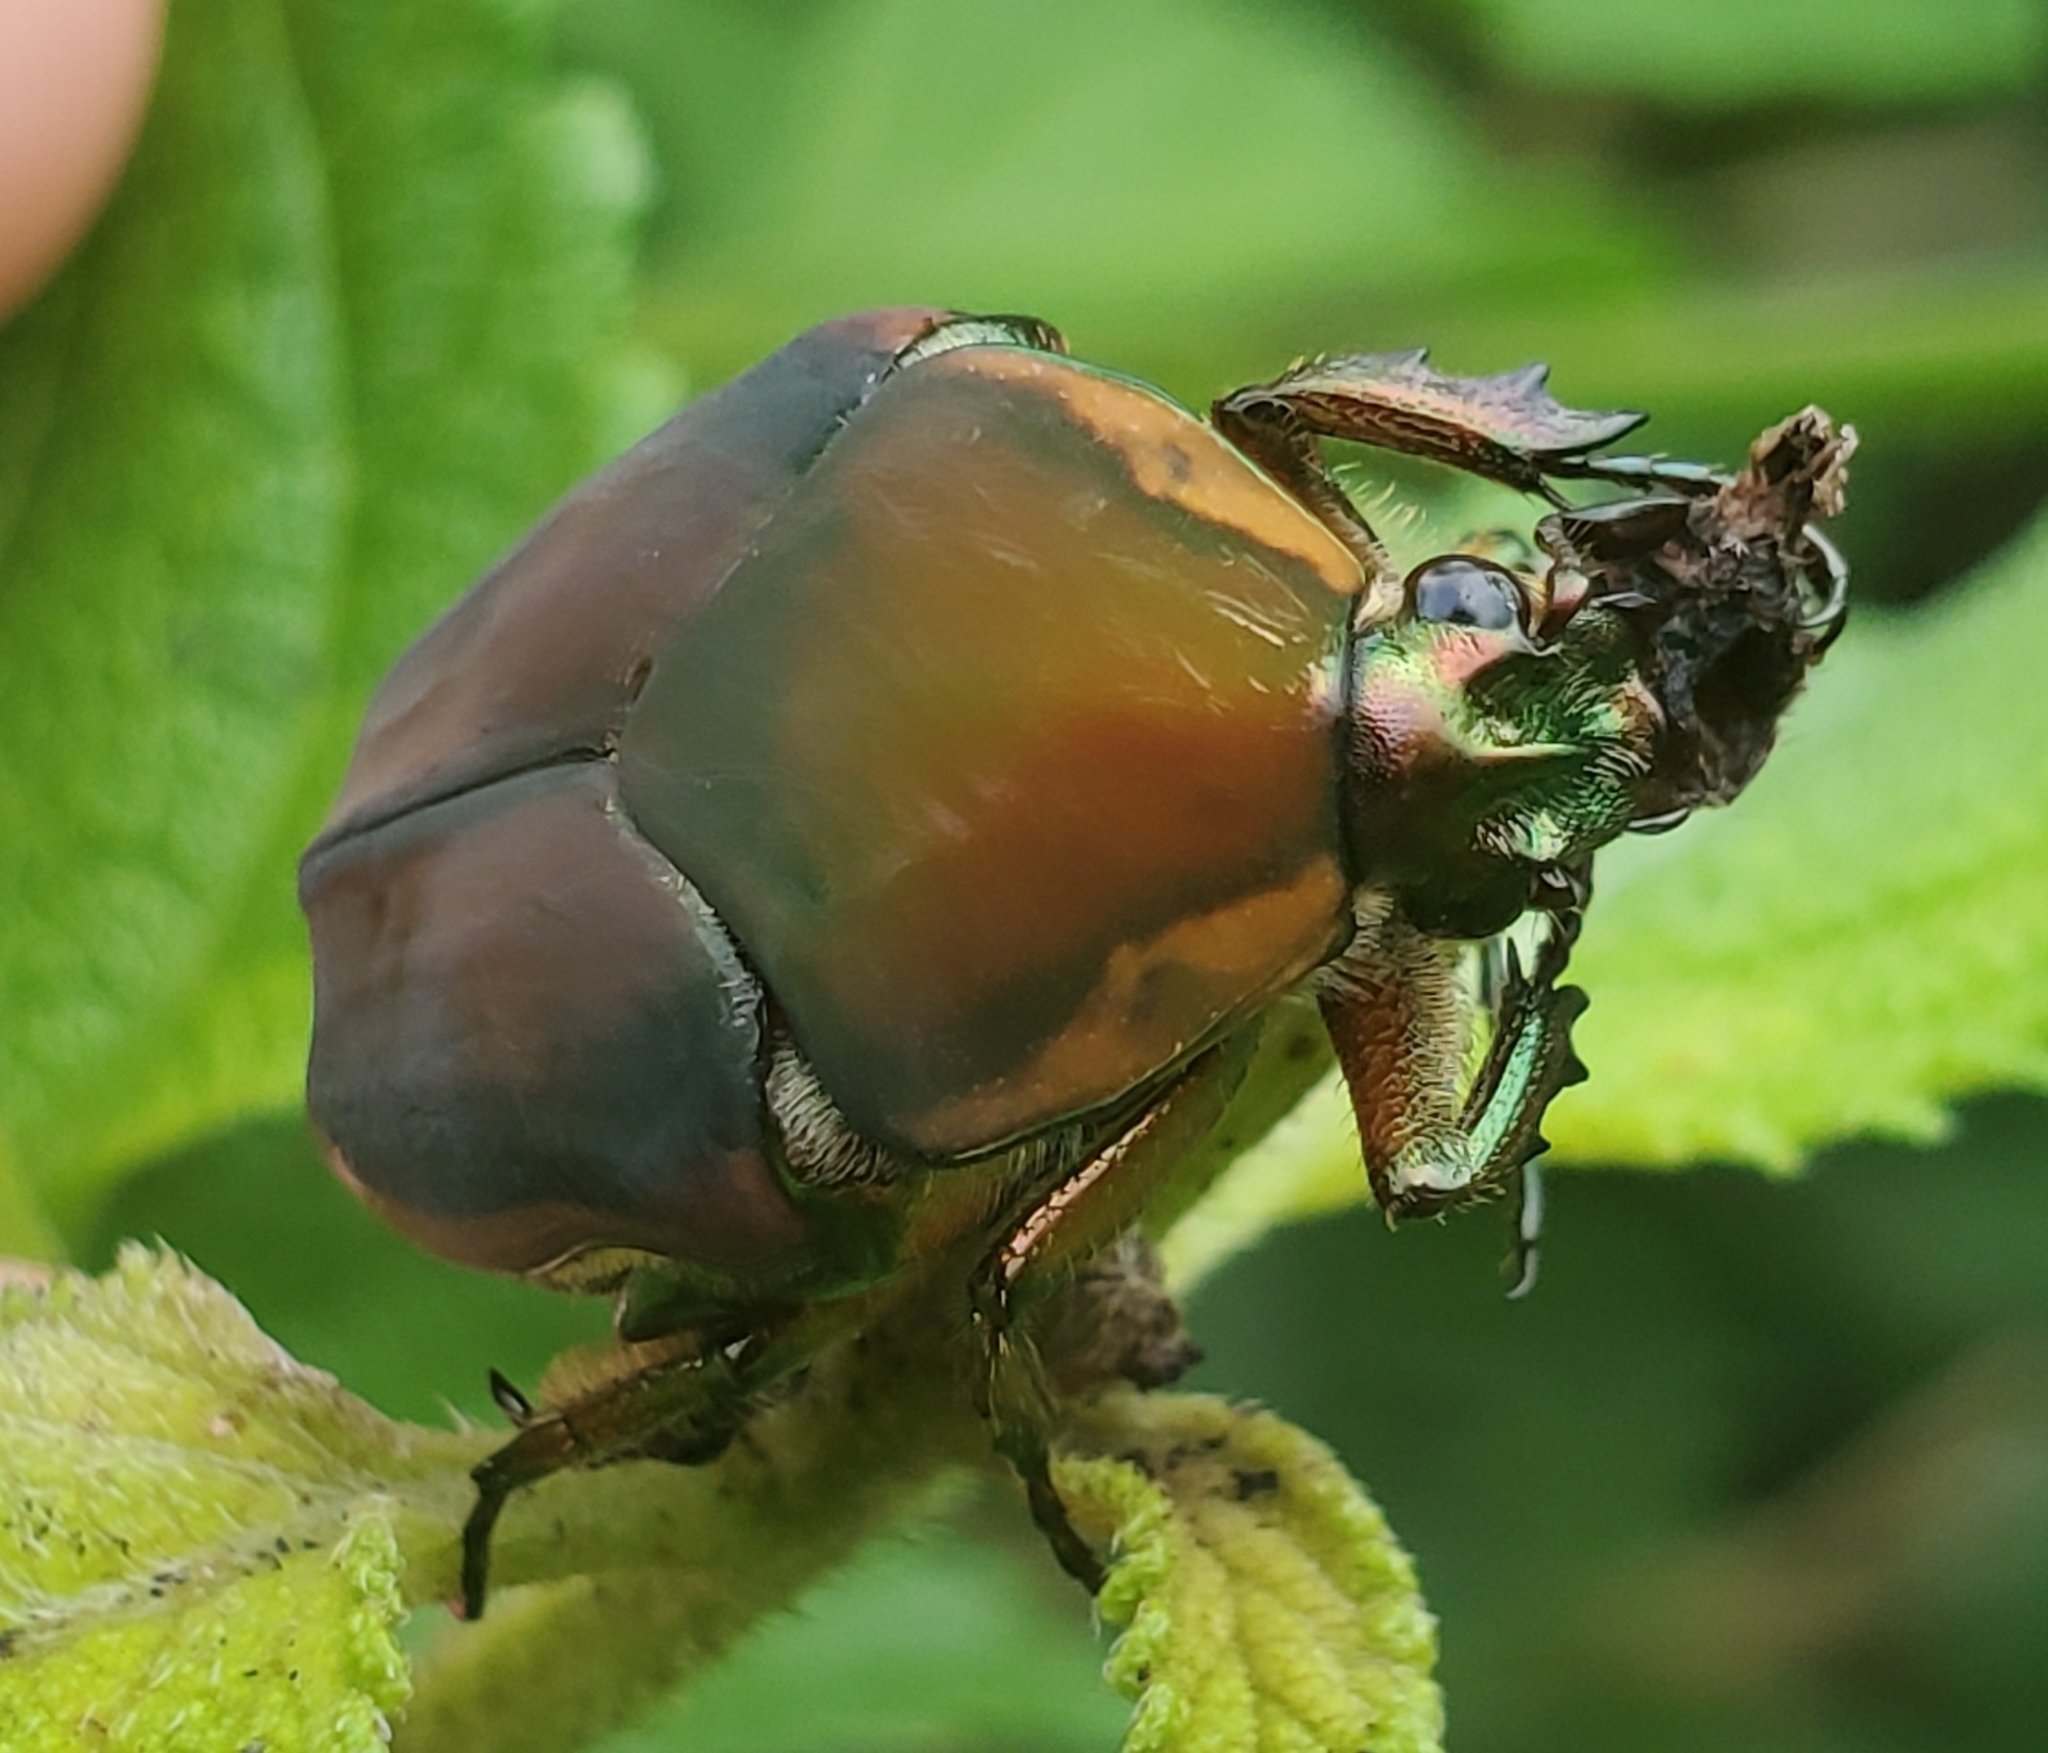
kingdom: Animalia
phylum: Arthropoda
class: Insecta
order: Coleoptera
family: Scarabaeidae
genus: Cotinis
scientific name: Cotinis nitida
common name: Common green june beetle
